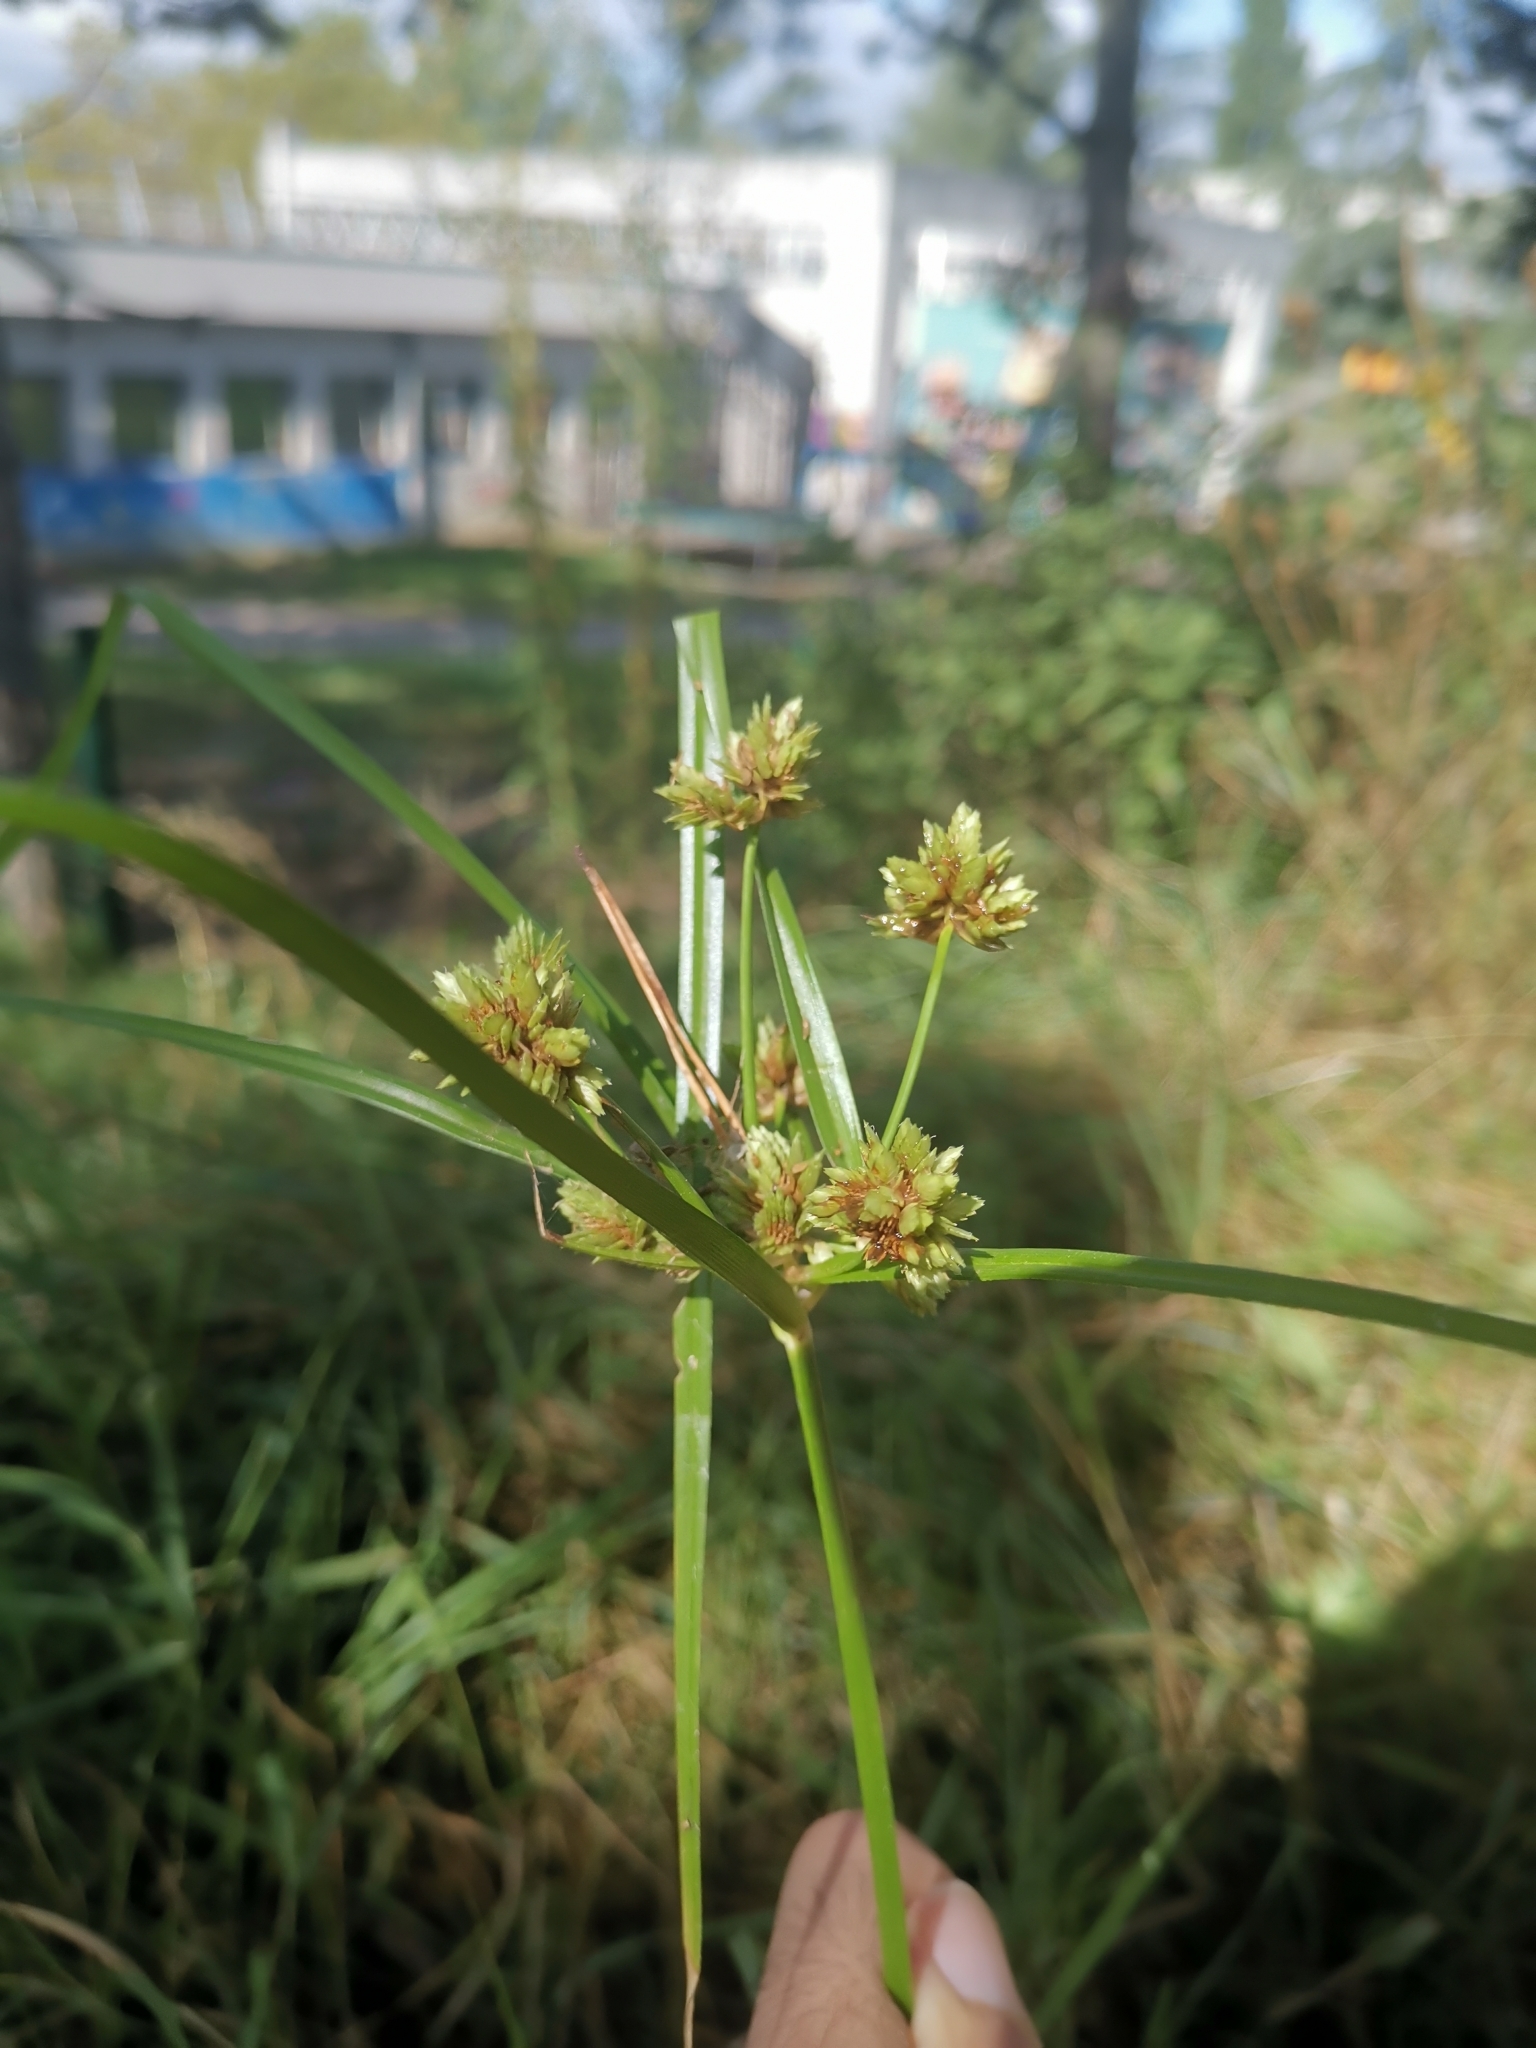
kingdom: Plantae
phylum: Tracheophyta
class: Liliopsida
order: Poales
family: Cyperaceae
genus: Cyperus
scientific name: Cyperus eragrostis
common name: Tall flatsedge
